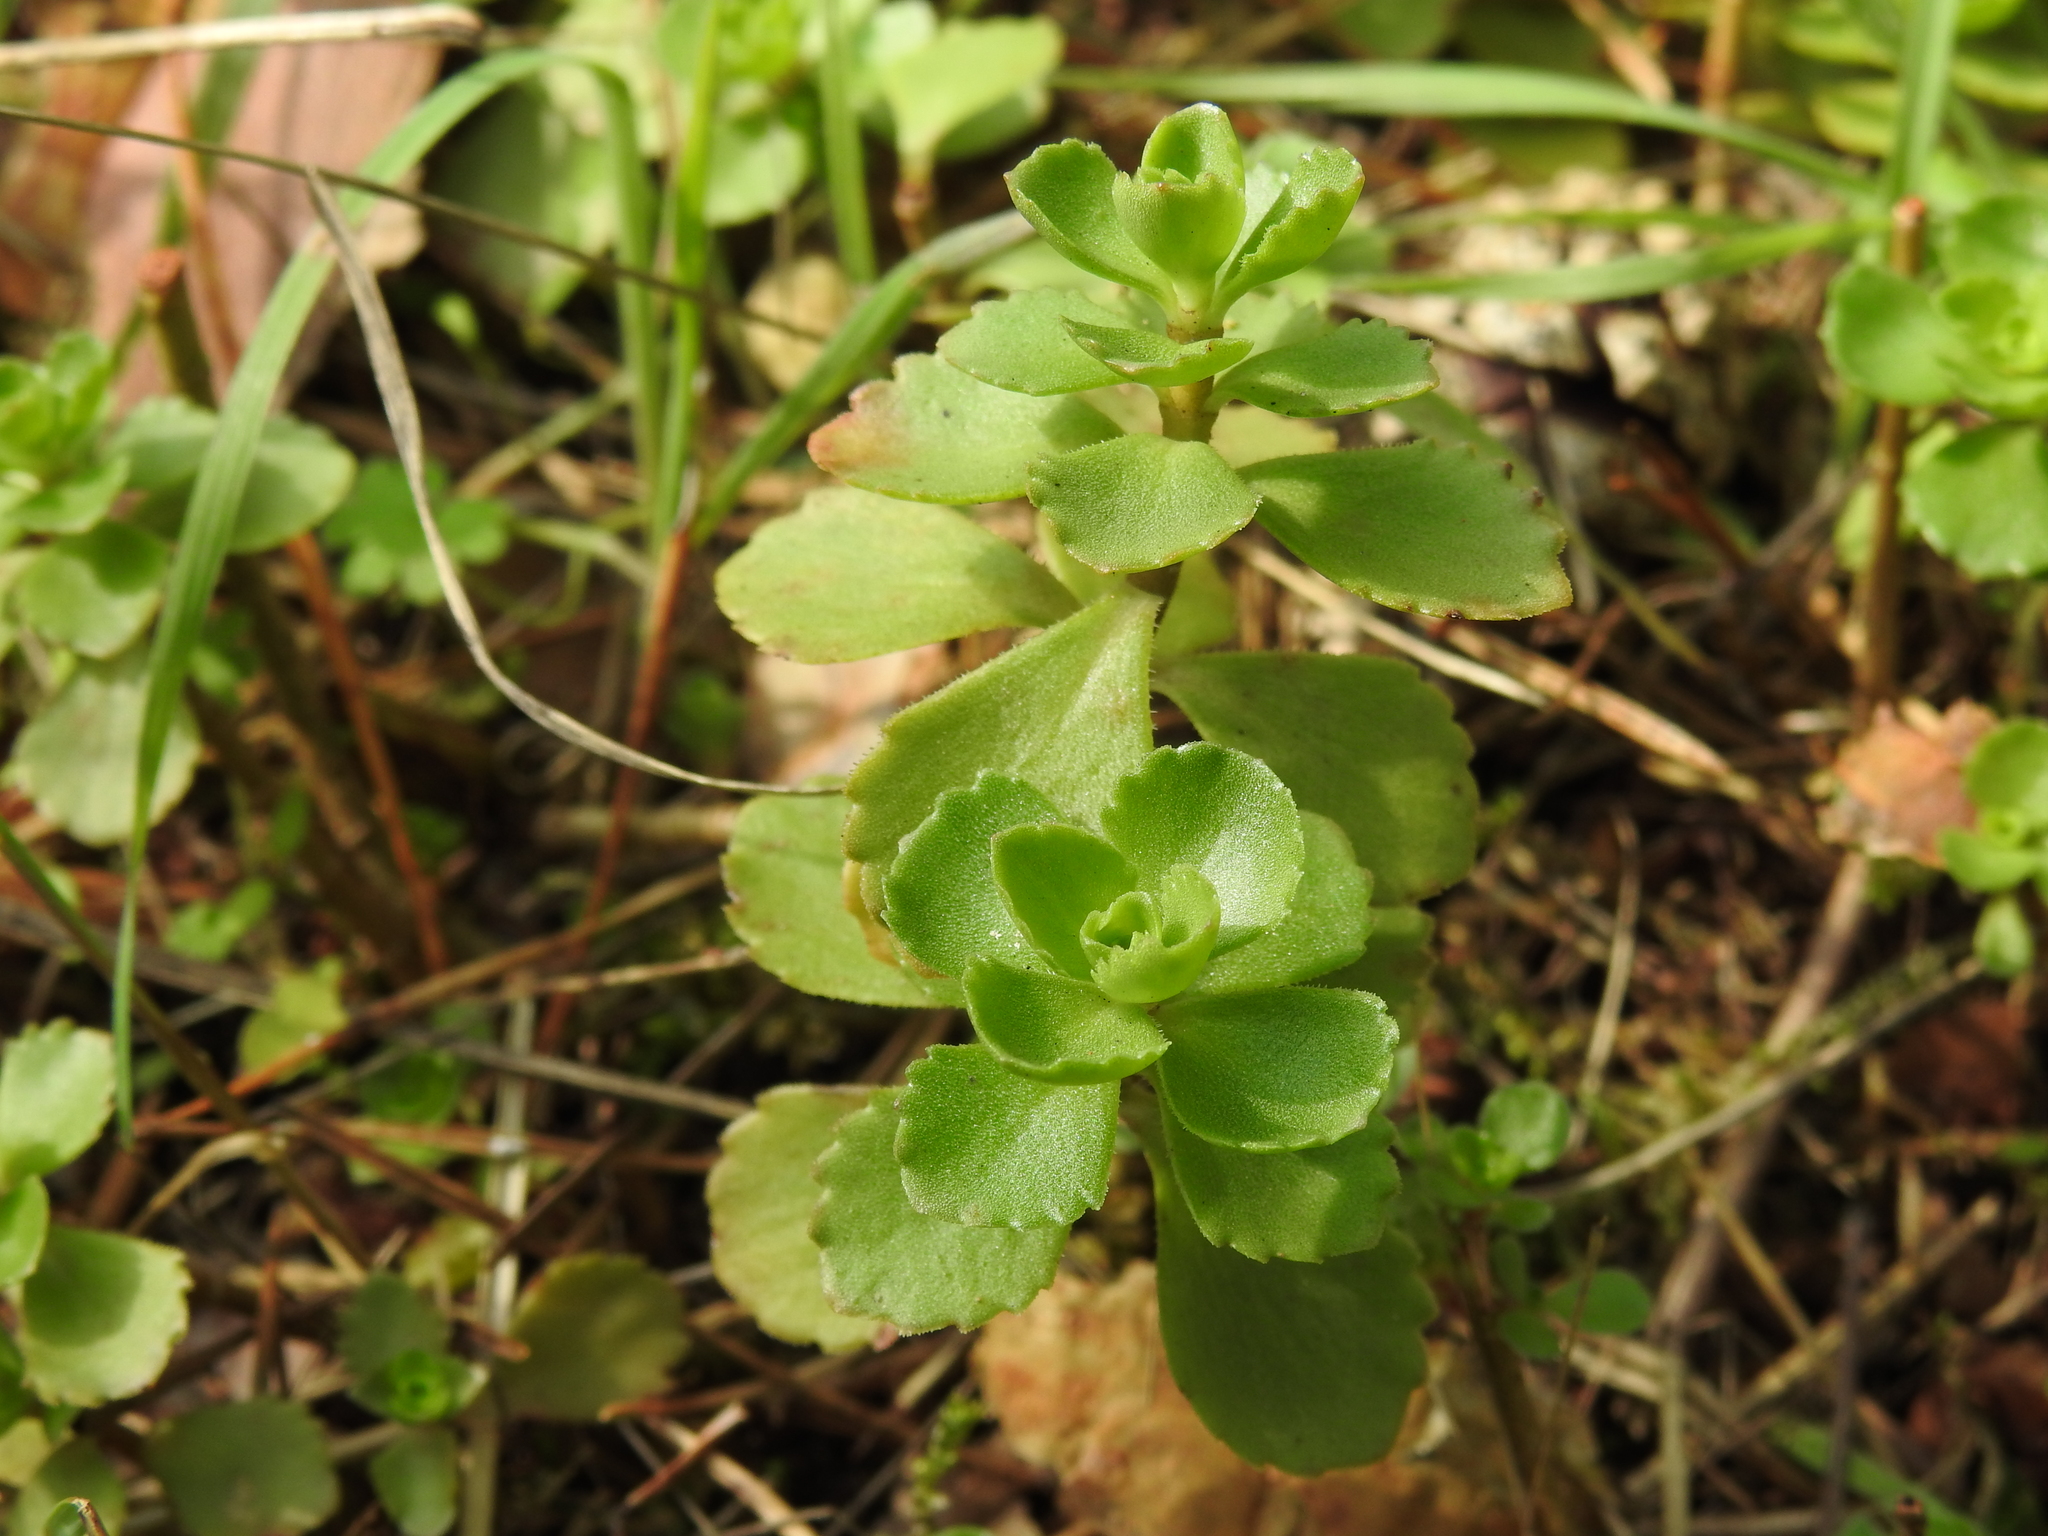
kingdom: Plantae
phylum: Tracheophyta
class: Magnoliopsida
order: Saxifragales
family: Crassulaceae
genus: Phedimus
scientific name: Phedimus spurius
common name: Caucasian stonecrop
